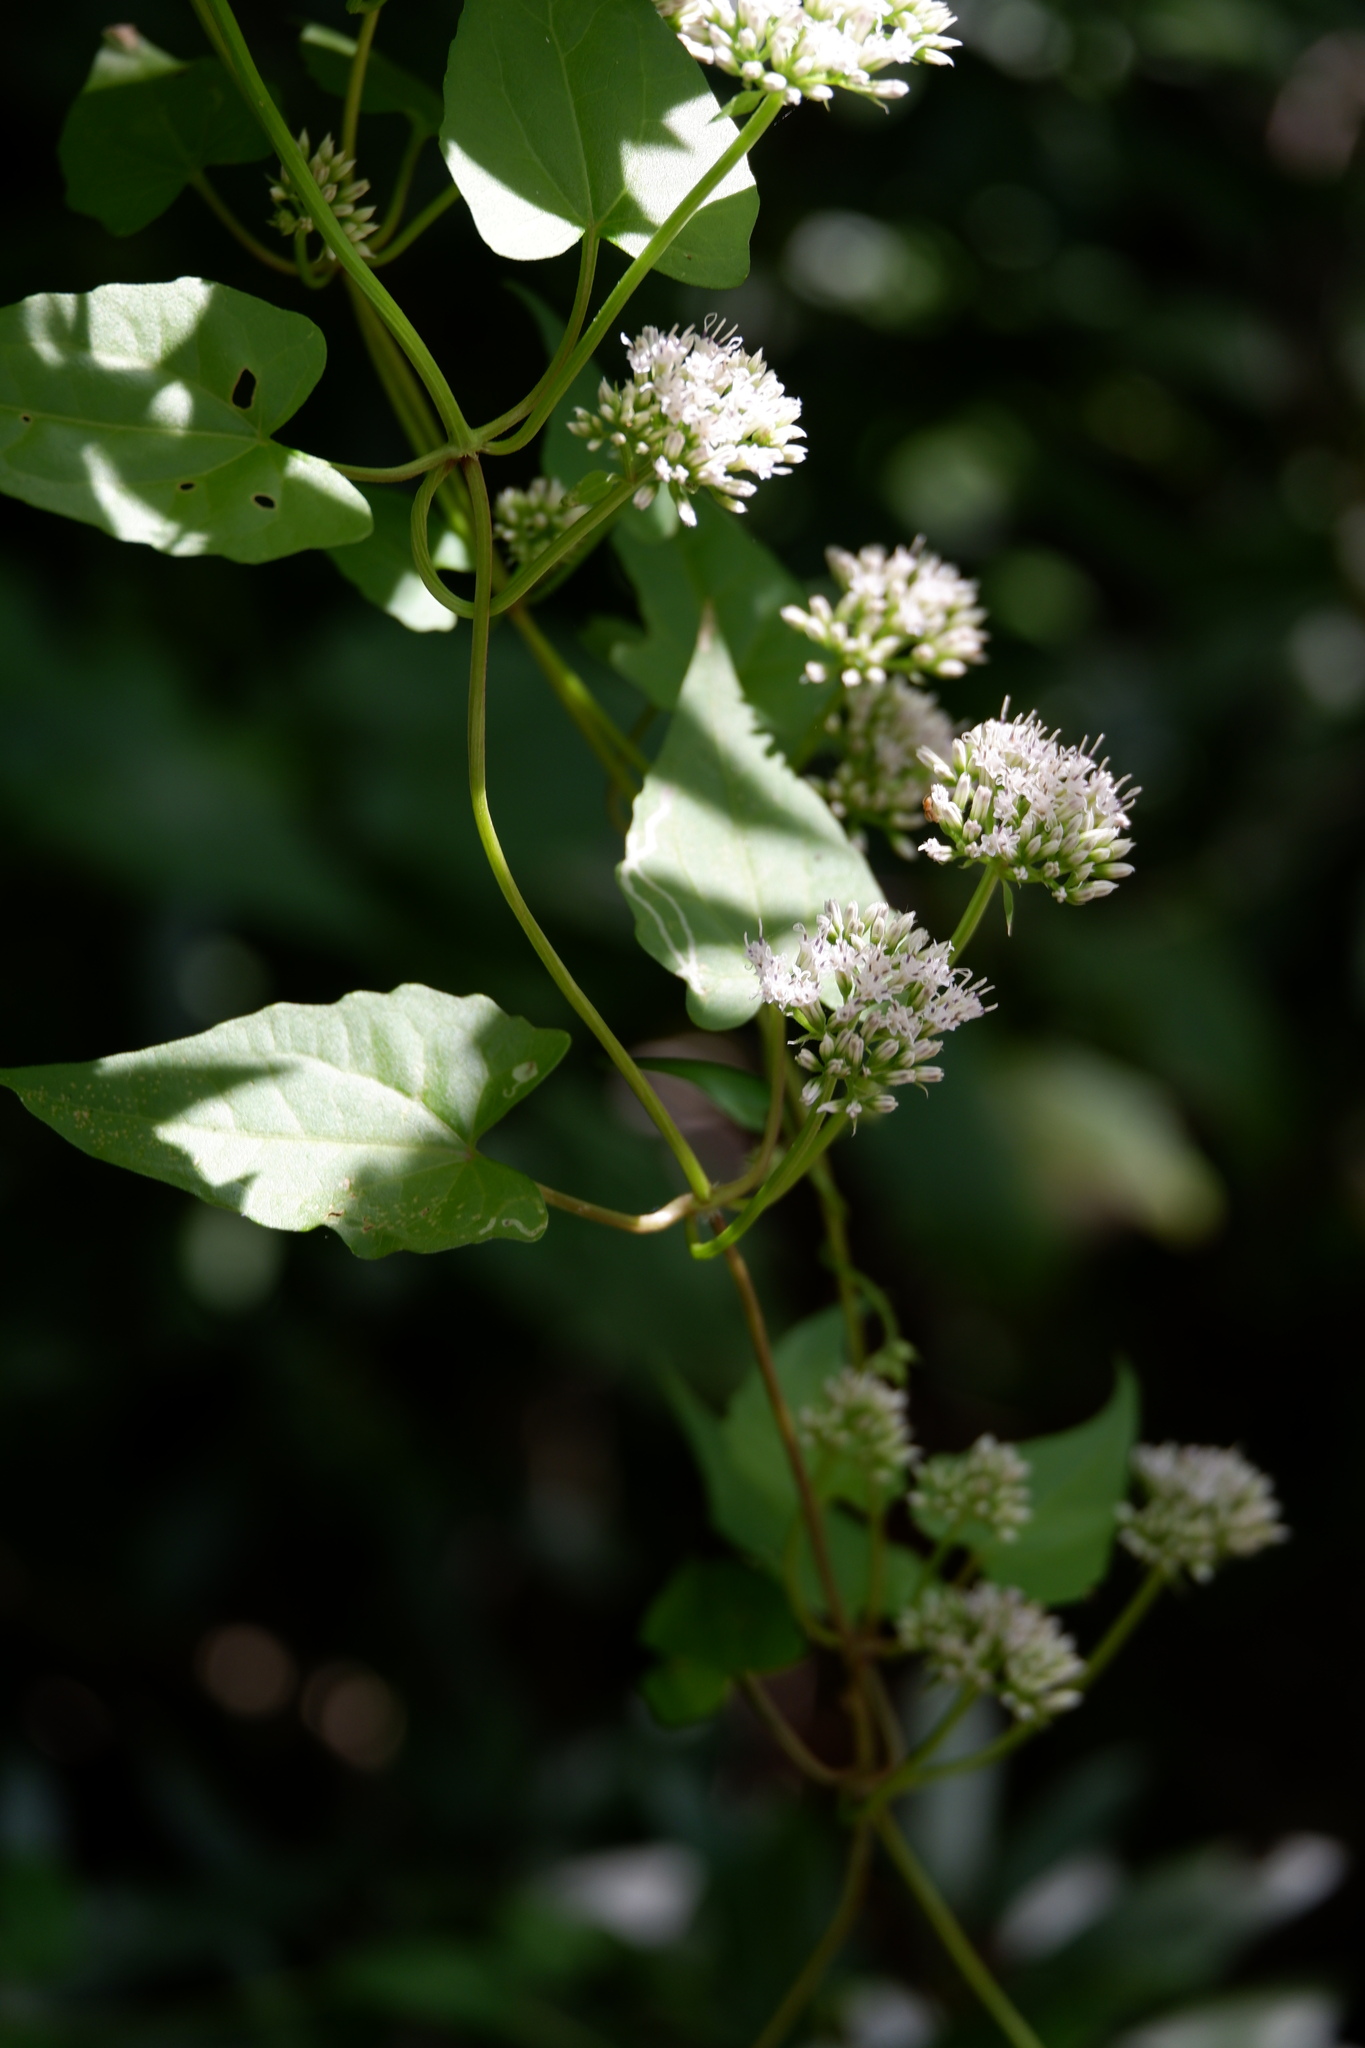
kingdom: Plantae
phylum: Tracheophyta
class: Magnoliopsida
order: Asterales
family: Asteraceae
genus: Mikania
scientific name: Mikania scandens
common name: Climbing hempvine
